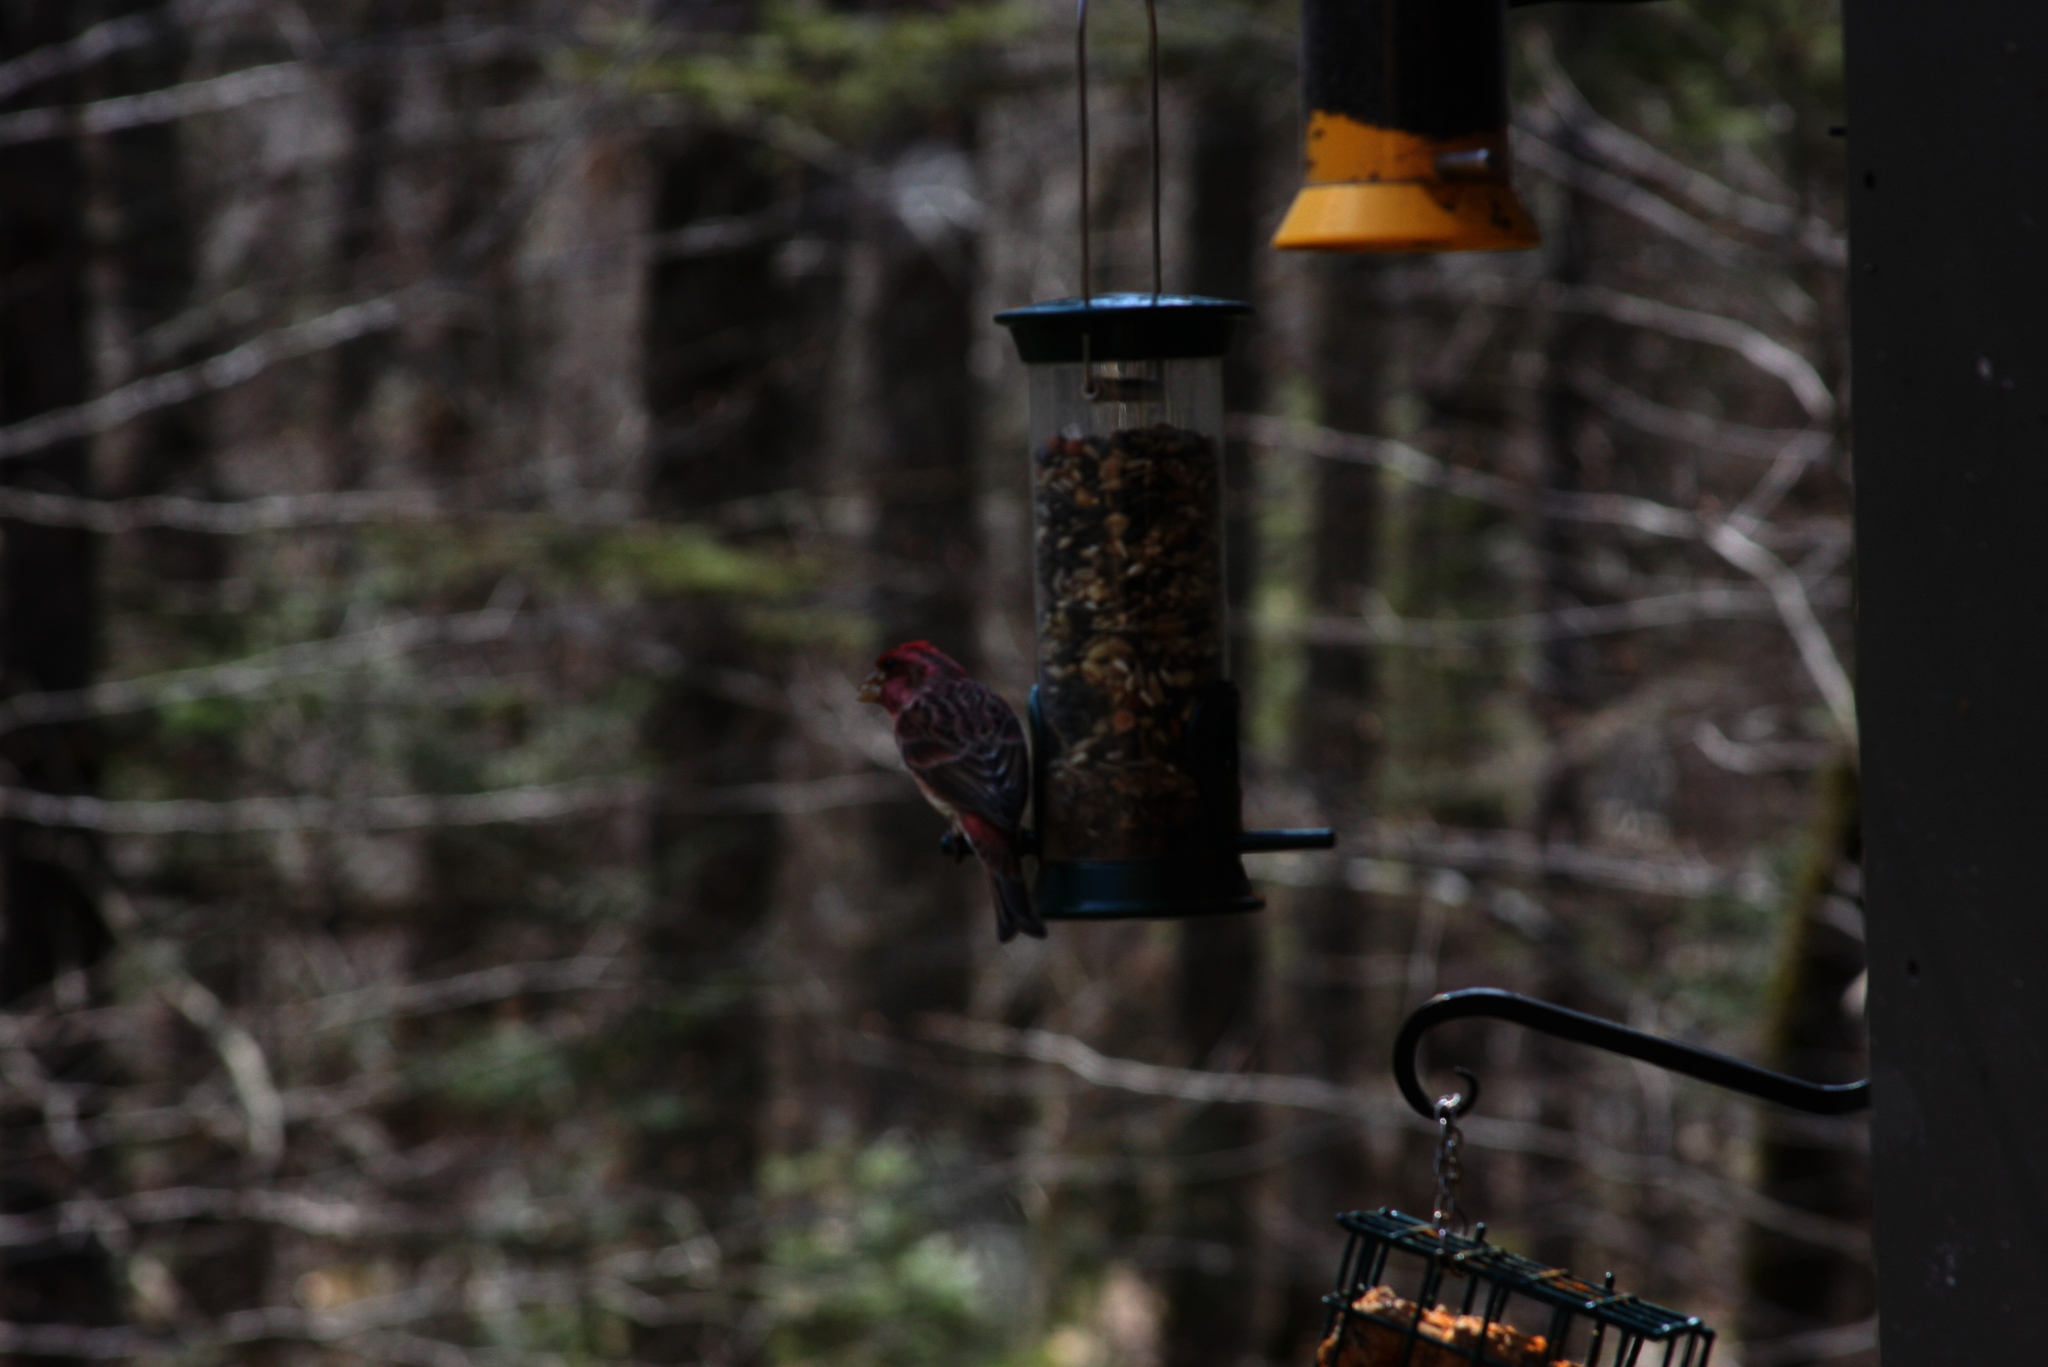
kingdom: Animalia
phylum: Chordata
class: Aves
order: Passeriformes
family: Fringillidae
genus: Haemorhous
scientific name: Haemorhous purpureus
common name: Purple finch
